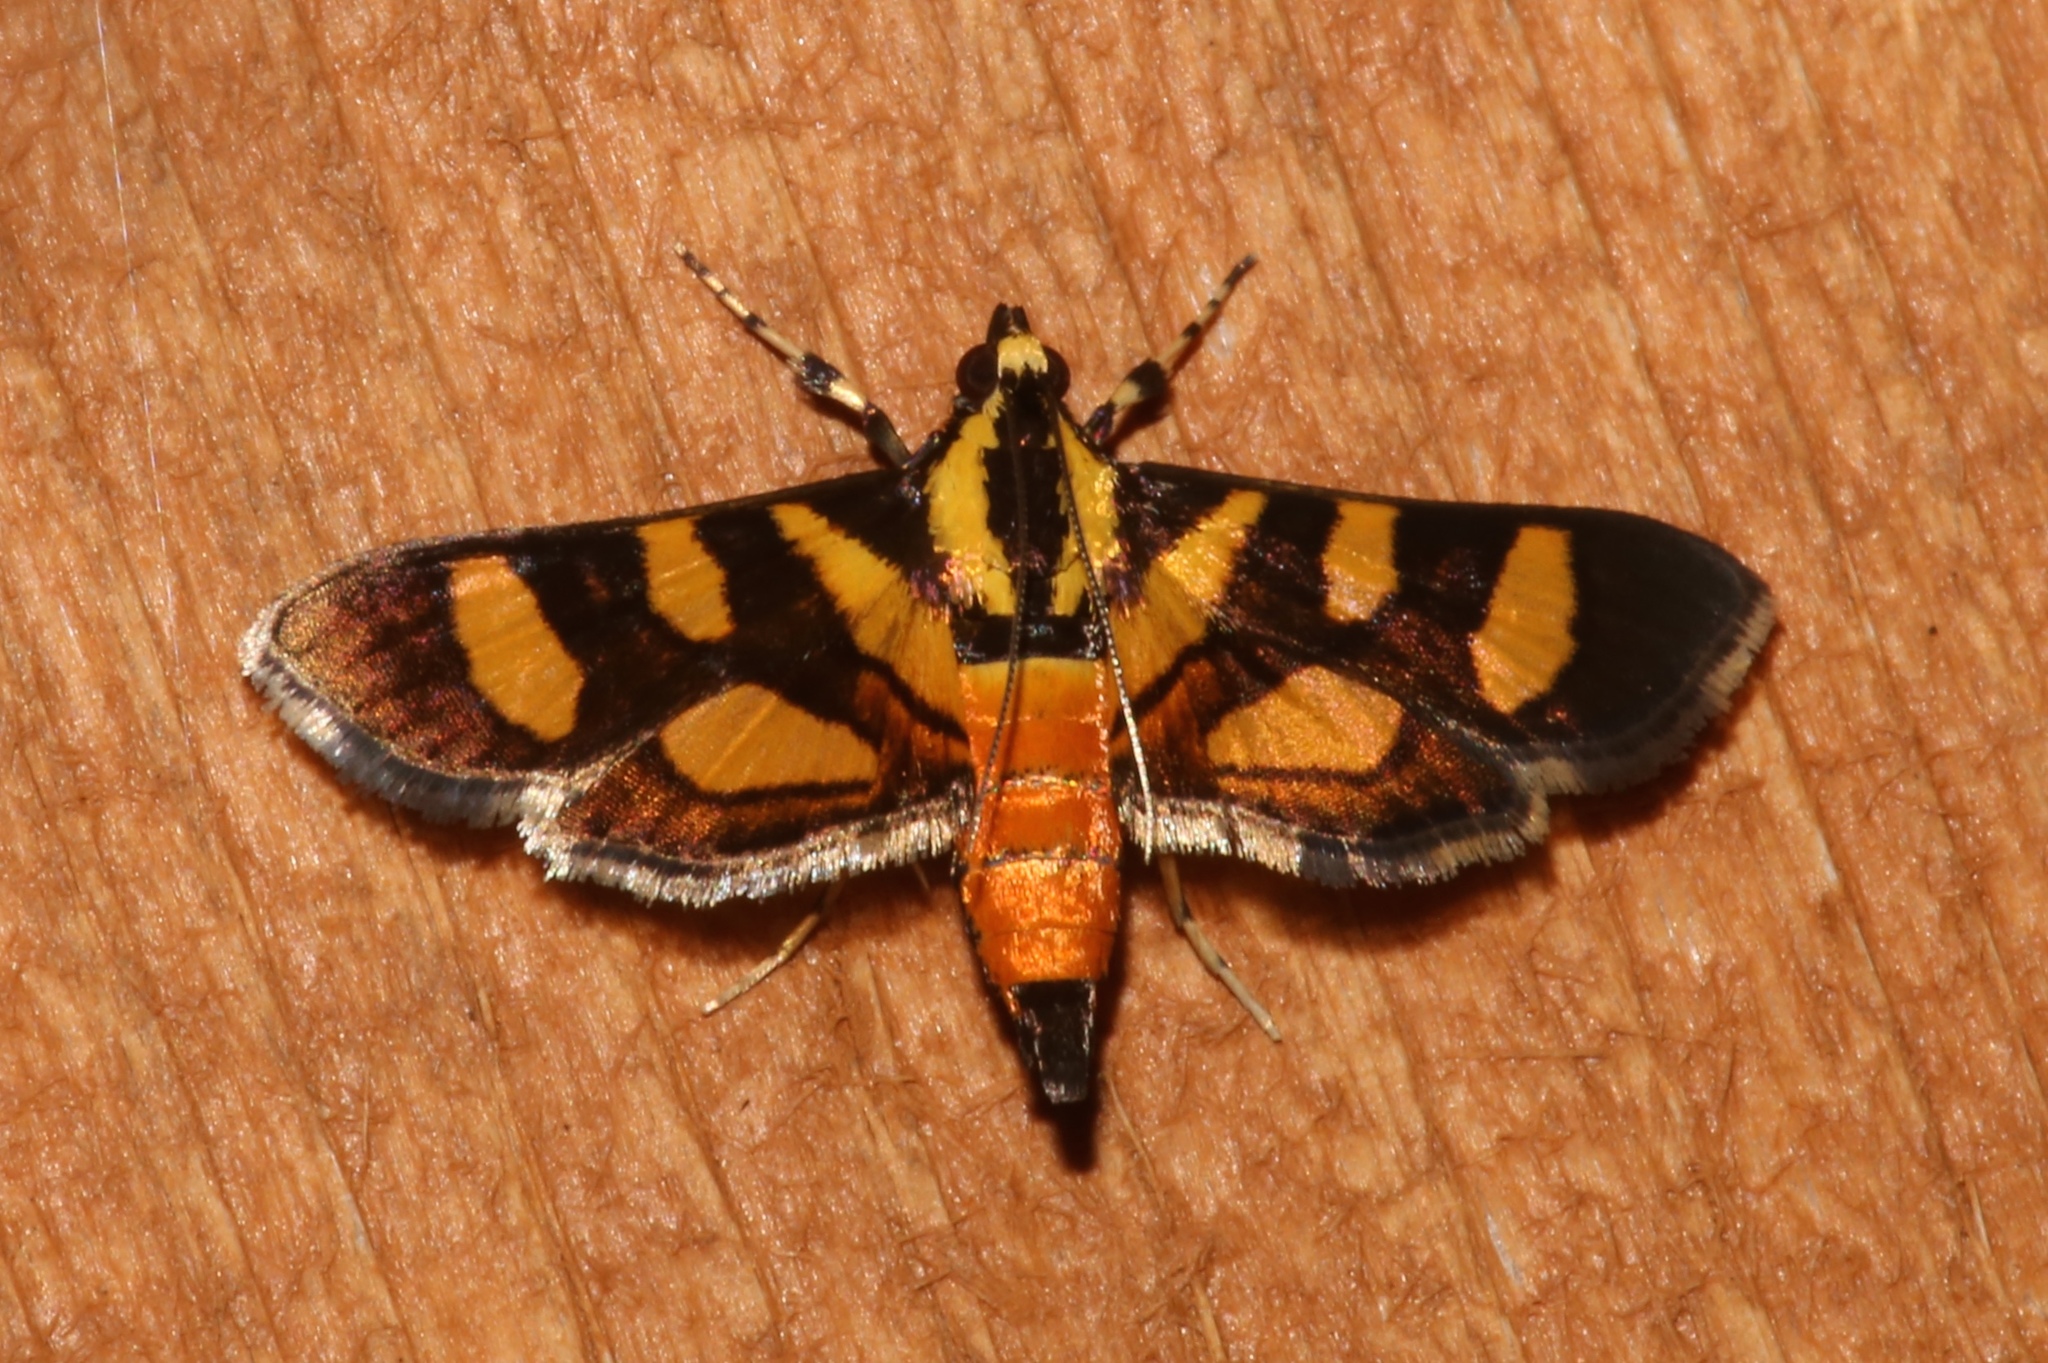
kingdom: Animalia
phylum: Arthropoda
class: Insecta
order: Lepidoptera
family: Crambidae
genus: Syngamia
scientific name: Syngamia florella
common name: Orange-spotted flower moth
